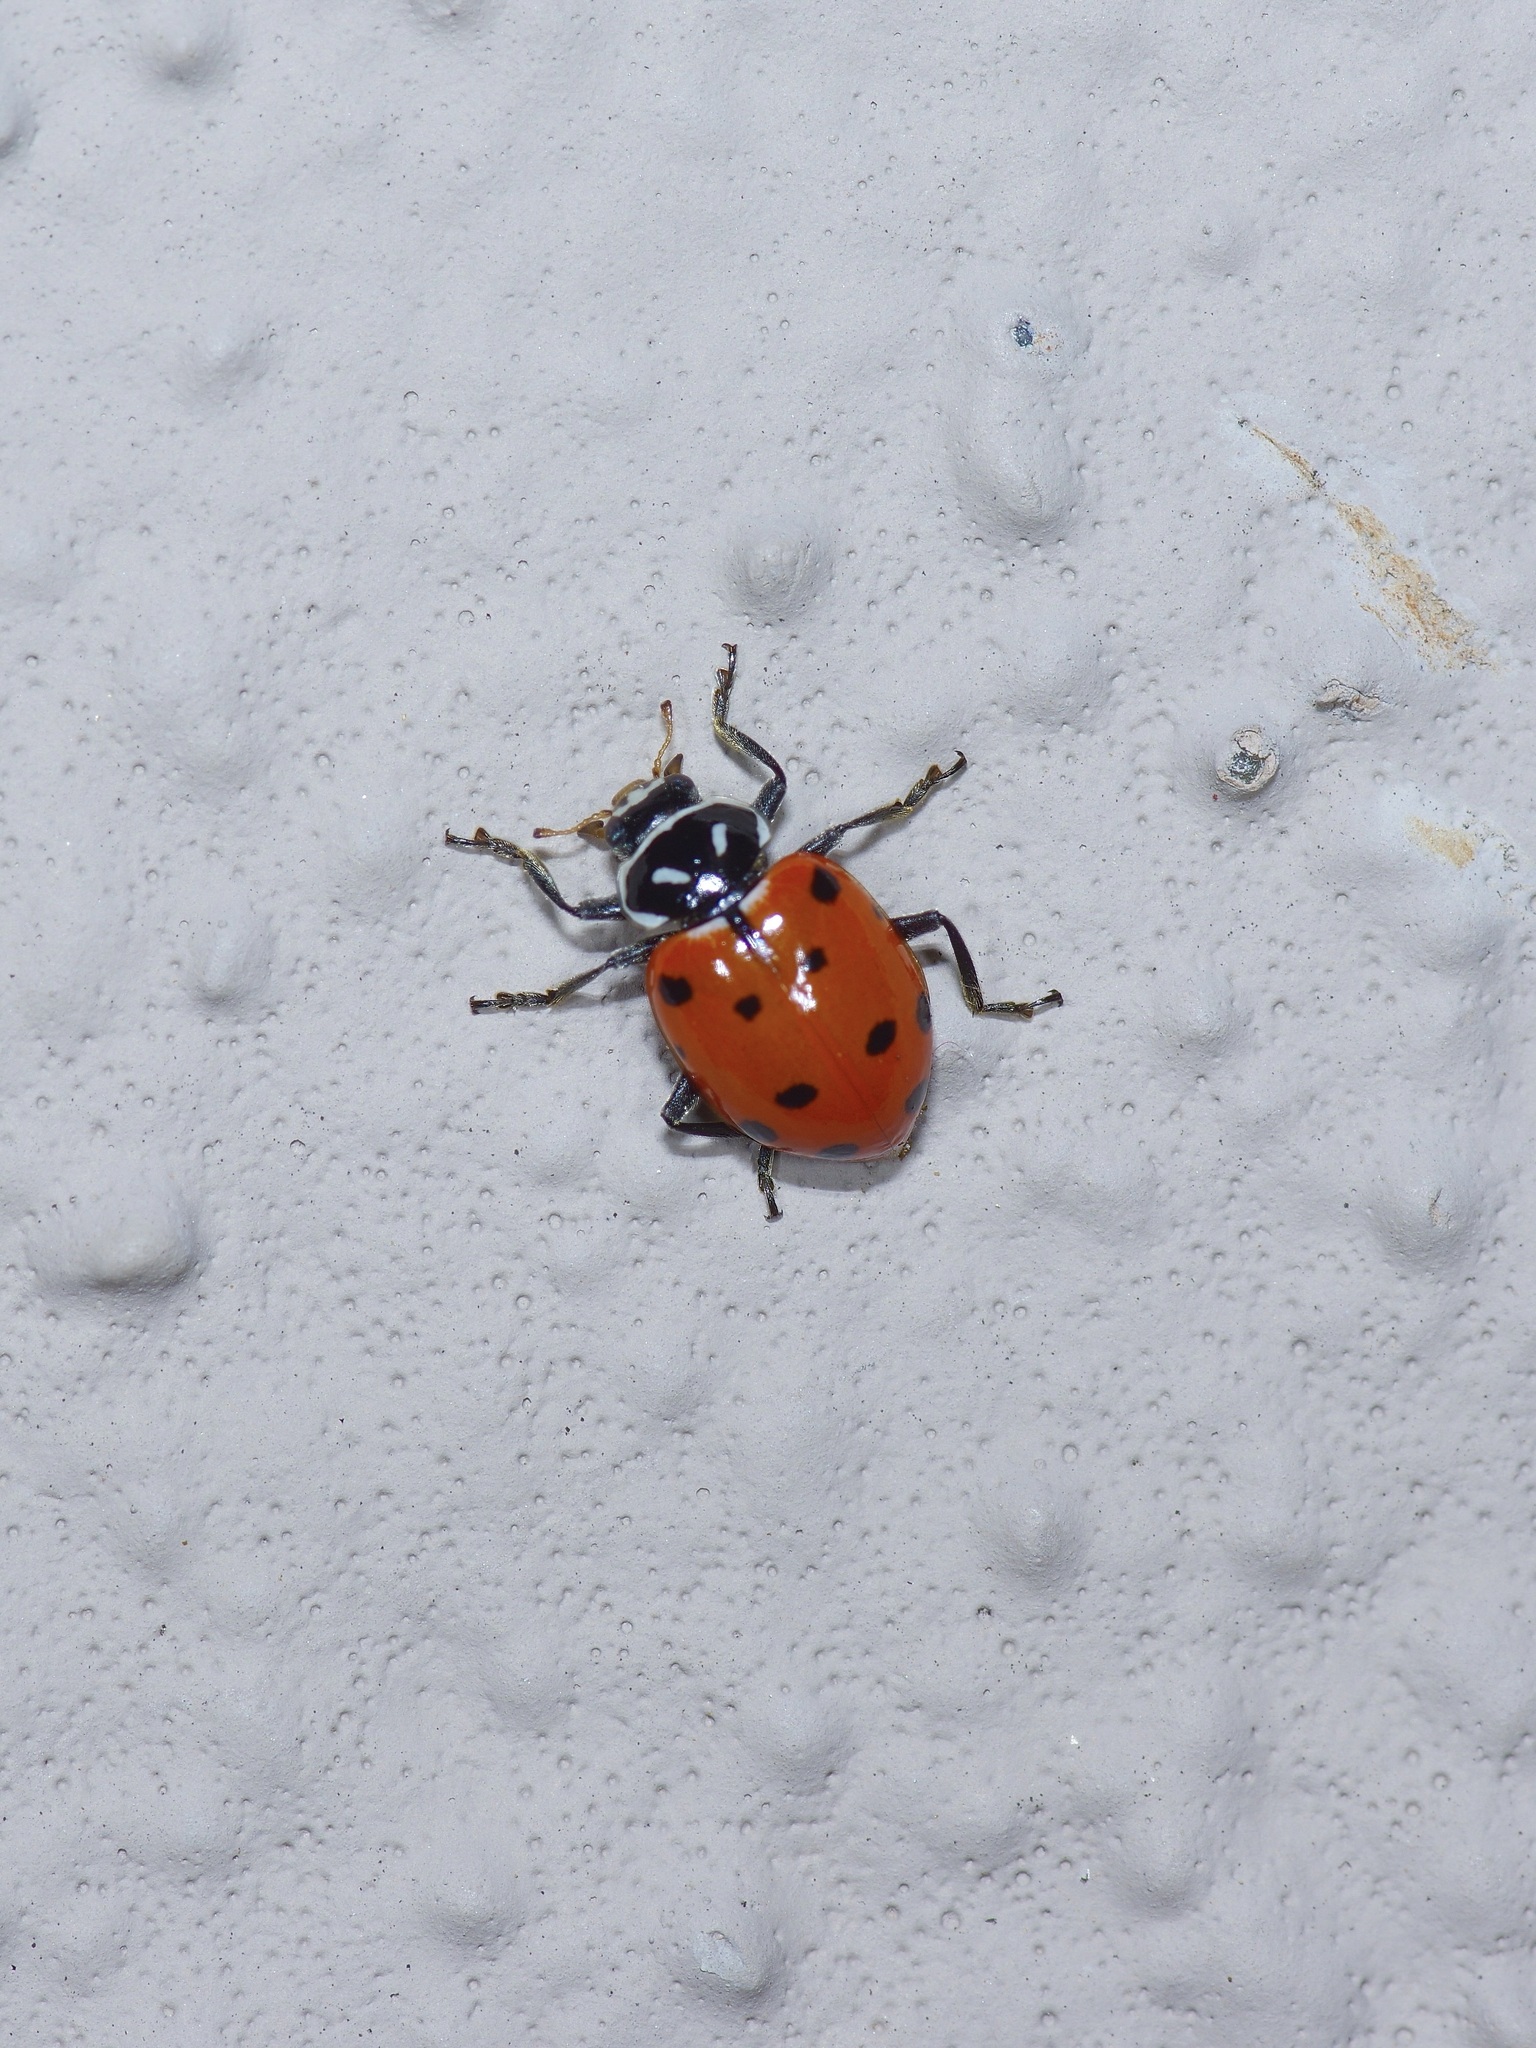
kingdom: Animalia
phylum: Arthropoda
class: Insecta
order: Coleoptera
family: Coccinellidae
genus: Hippodamia
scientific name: Hippodamia convergens
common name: Convergent lady beetle
